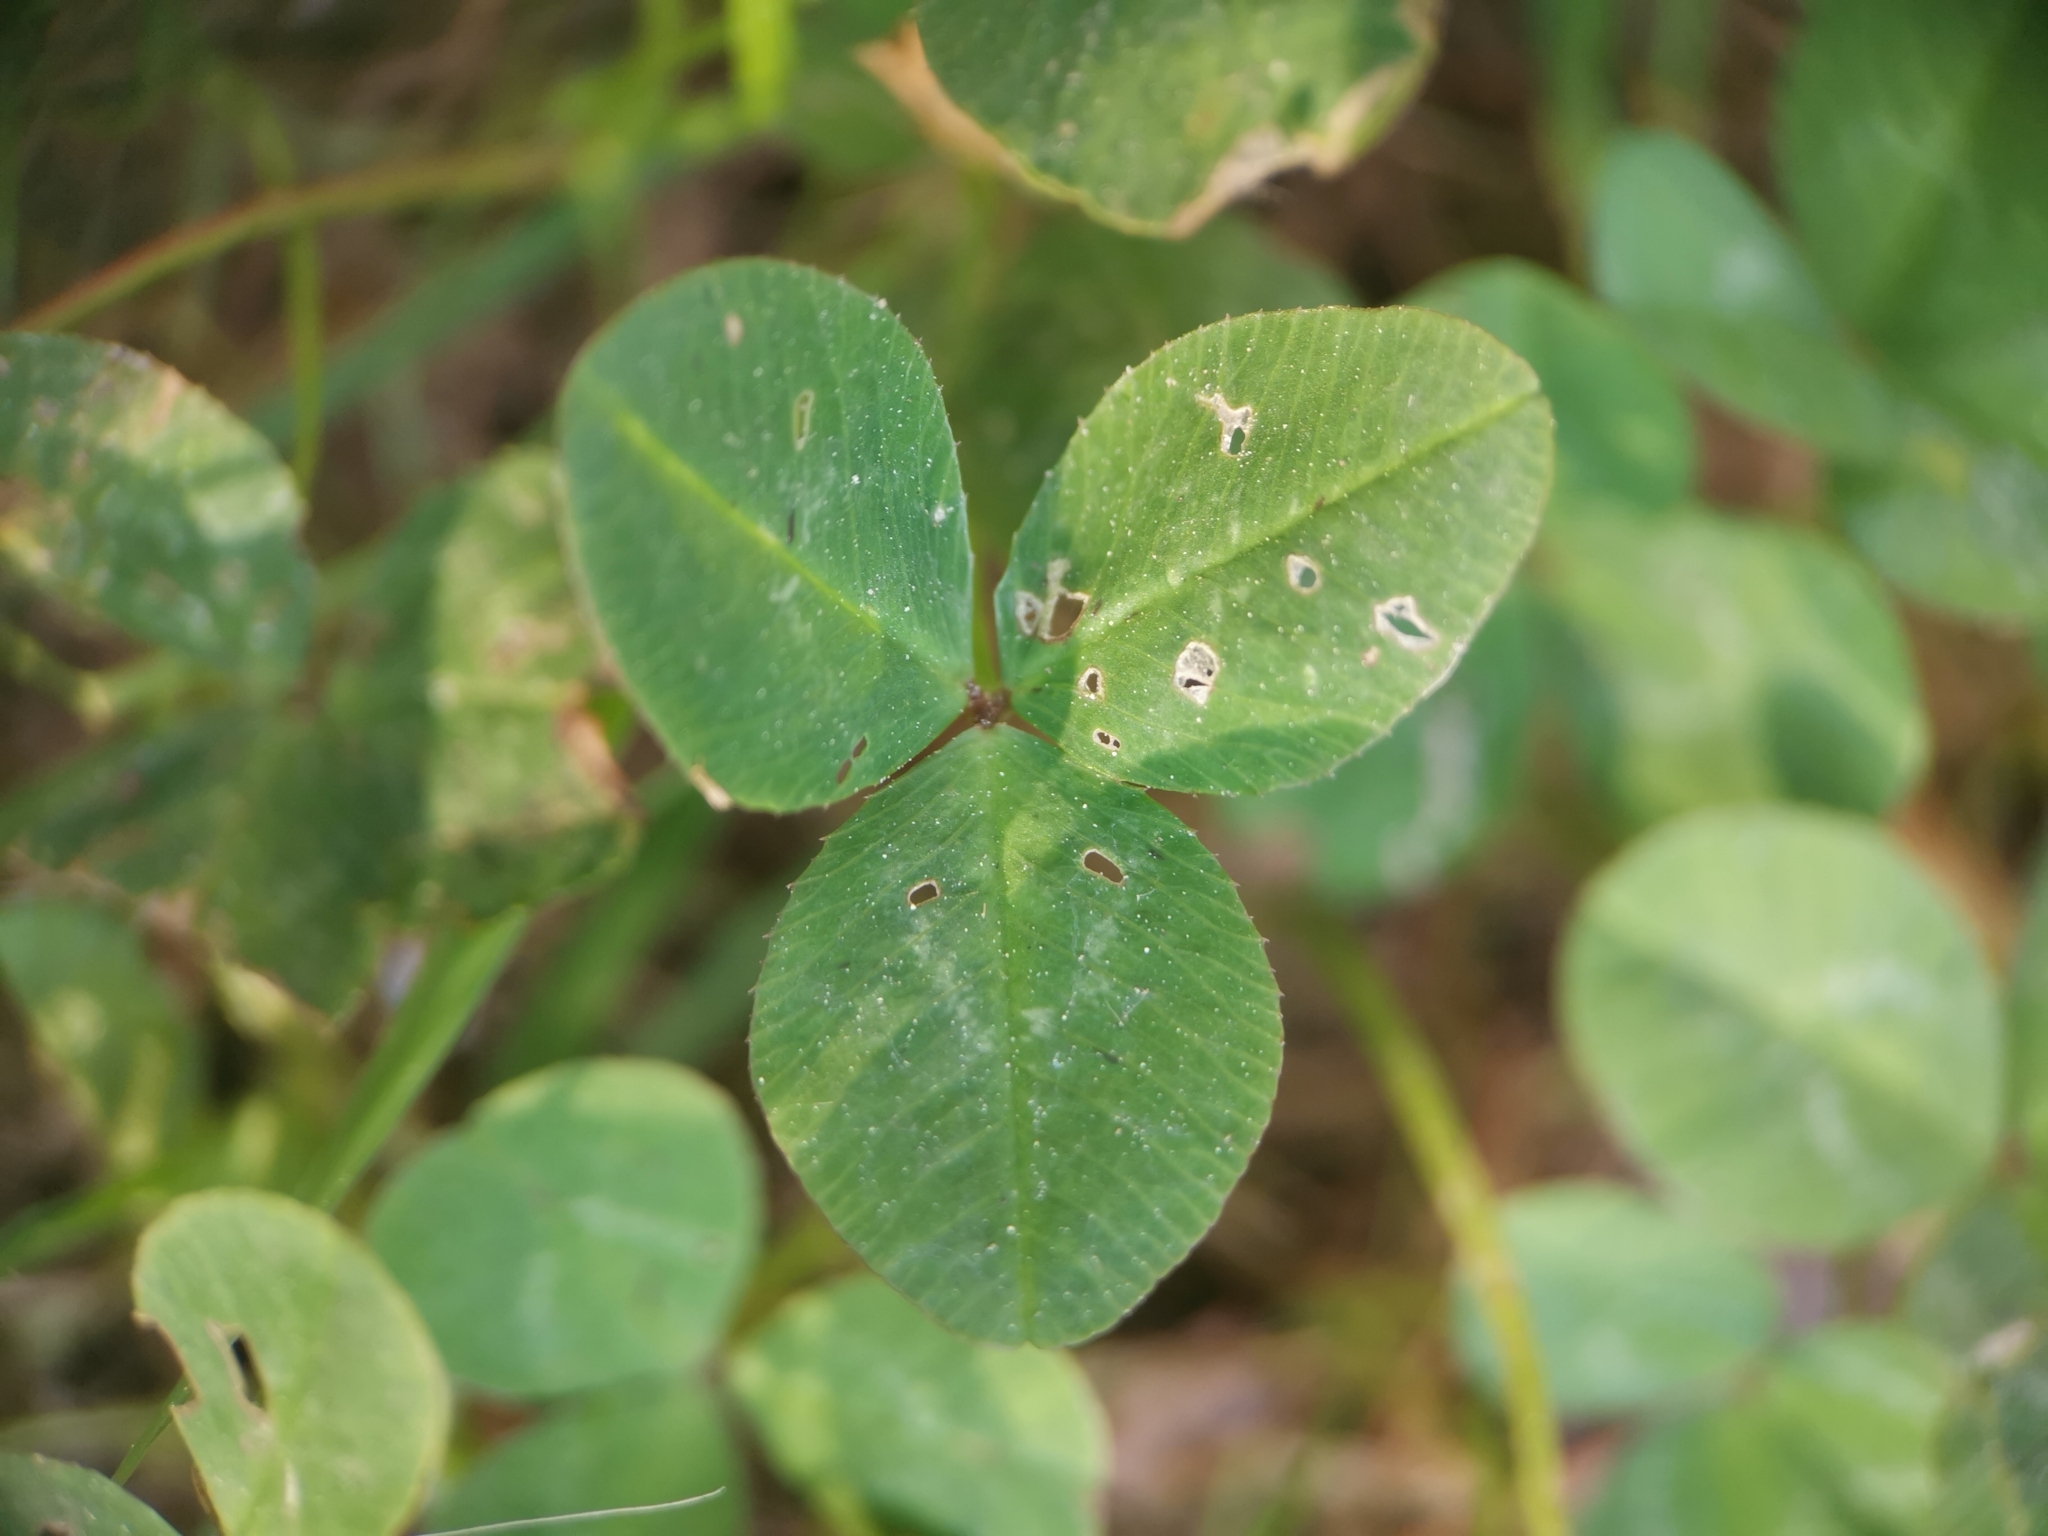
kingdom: Plantae
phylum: Tracheophyta
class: Magnoliopsida
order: Fabales
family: Fabaceae
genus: Trifolium
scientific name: Trifolium repens
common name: White clover
